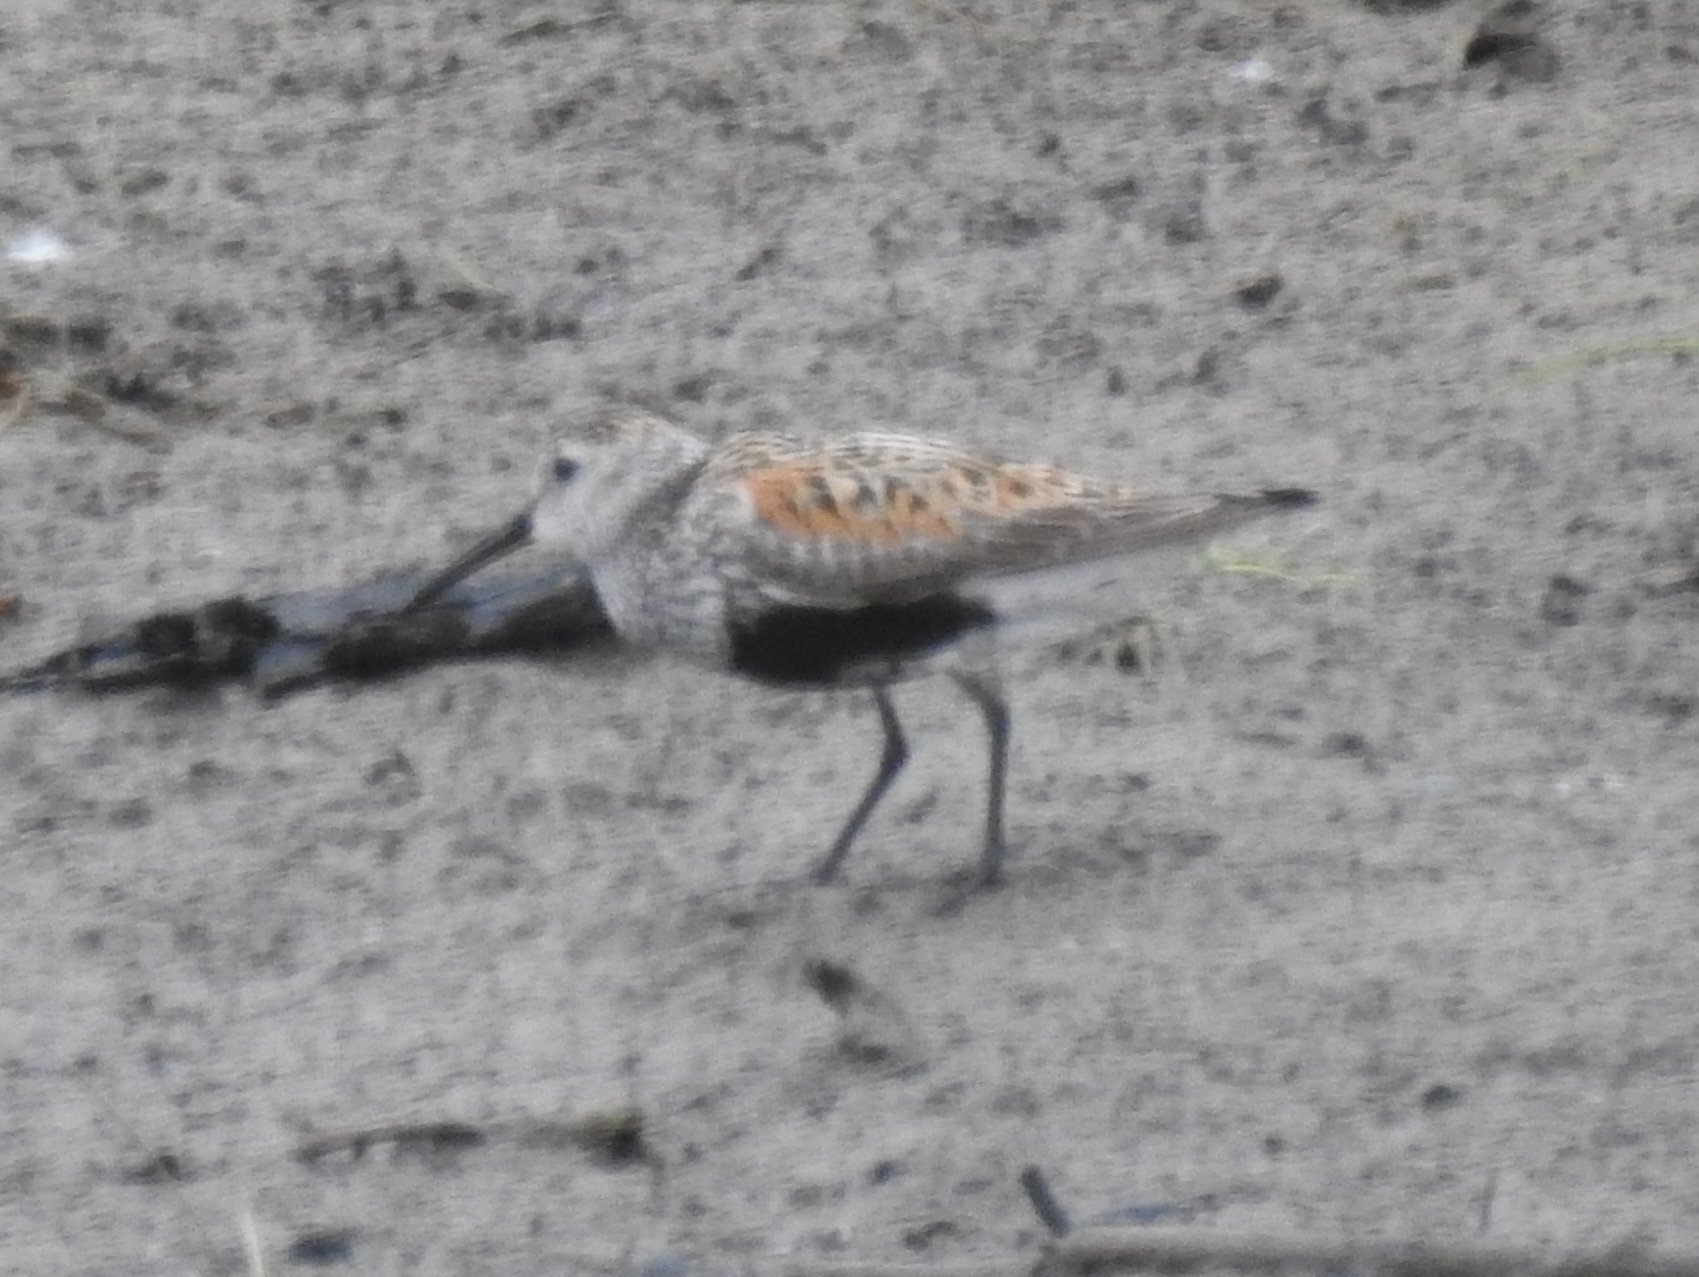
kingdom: Animalia
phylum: Chordata
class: Aves
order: Charadriiformes
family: Scolopacidae
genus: Calidris
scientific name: Calidris alpina
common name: Dunlin
